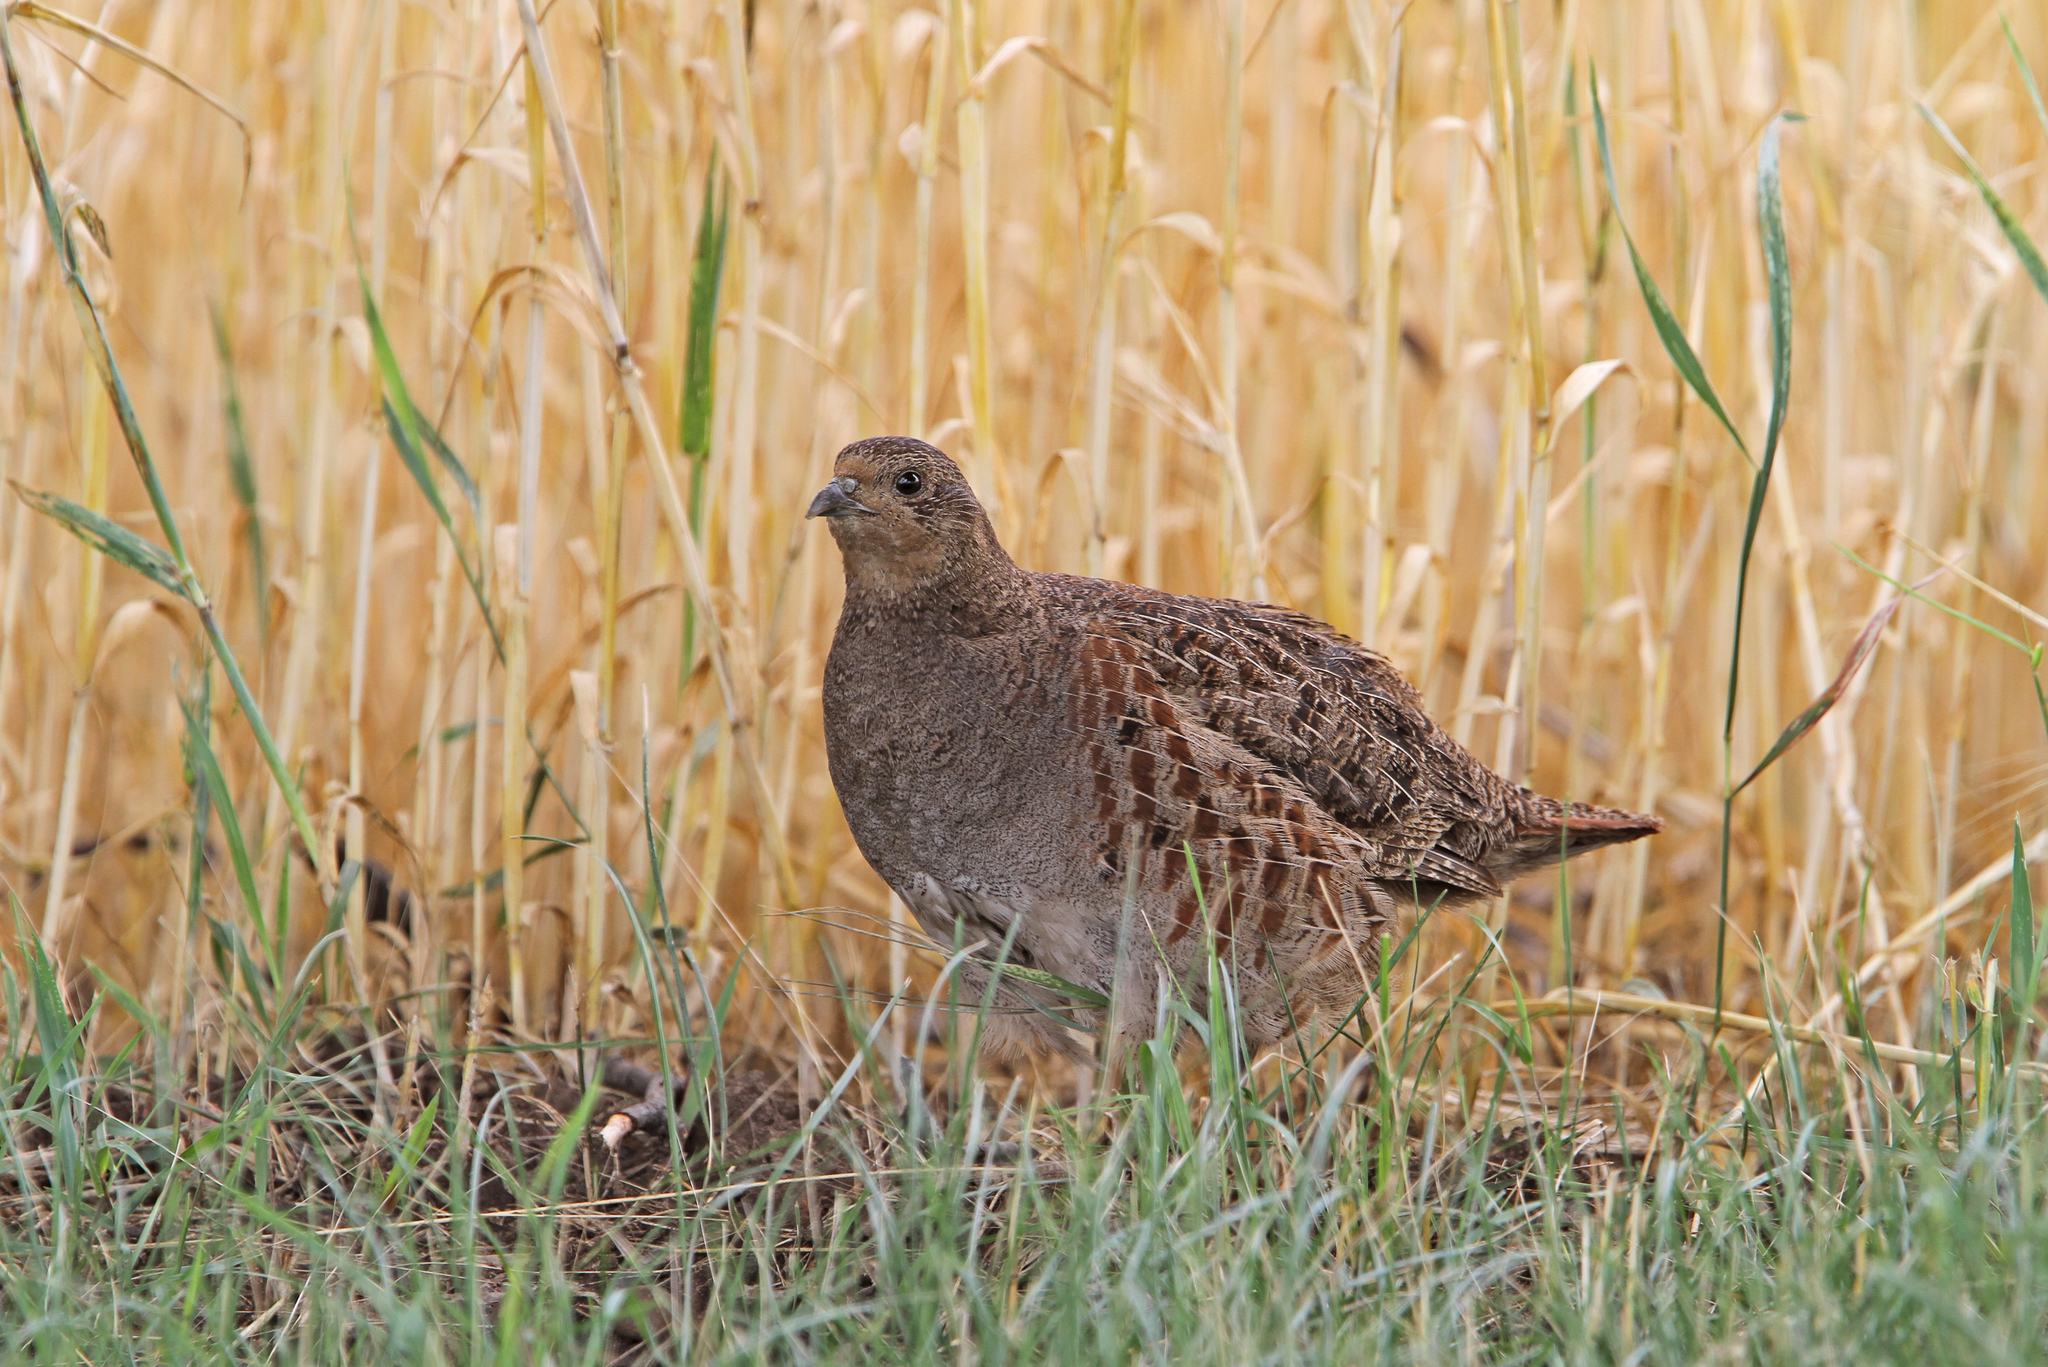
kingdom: Animalia
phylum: Chordata
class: Aves
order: Galliformes
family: Phasianidae
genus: Perdix
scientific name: Perdix perdix
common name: Grey partridge
